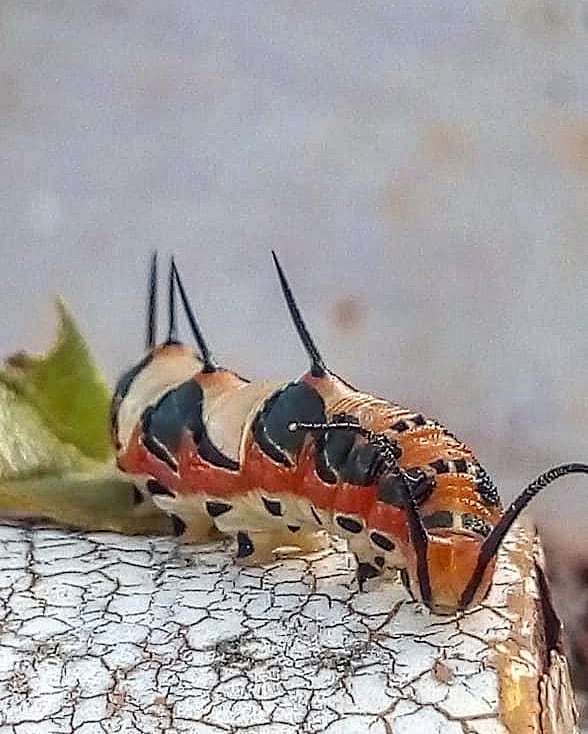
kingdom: Animalia
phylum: Arthropoda
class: Insecta
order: Lepidoptera
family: Nymphalidae
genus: Marpesia
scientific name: Marpesia petreus
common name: Red dagger wing
